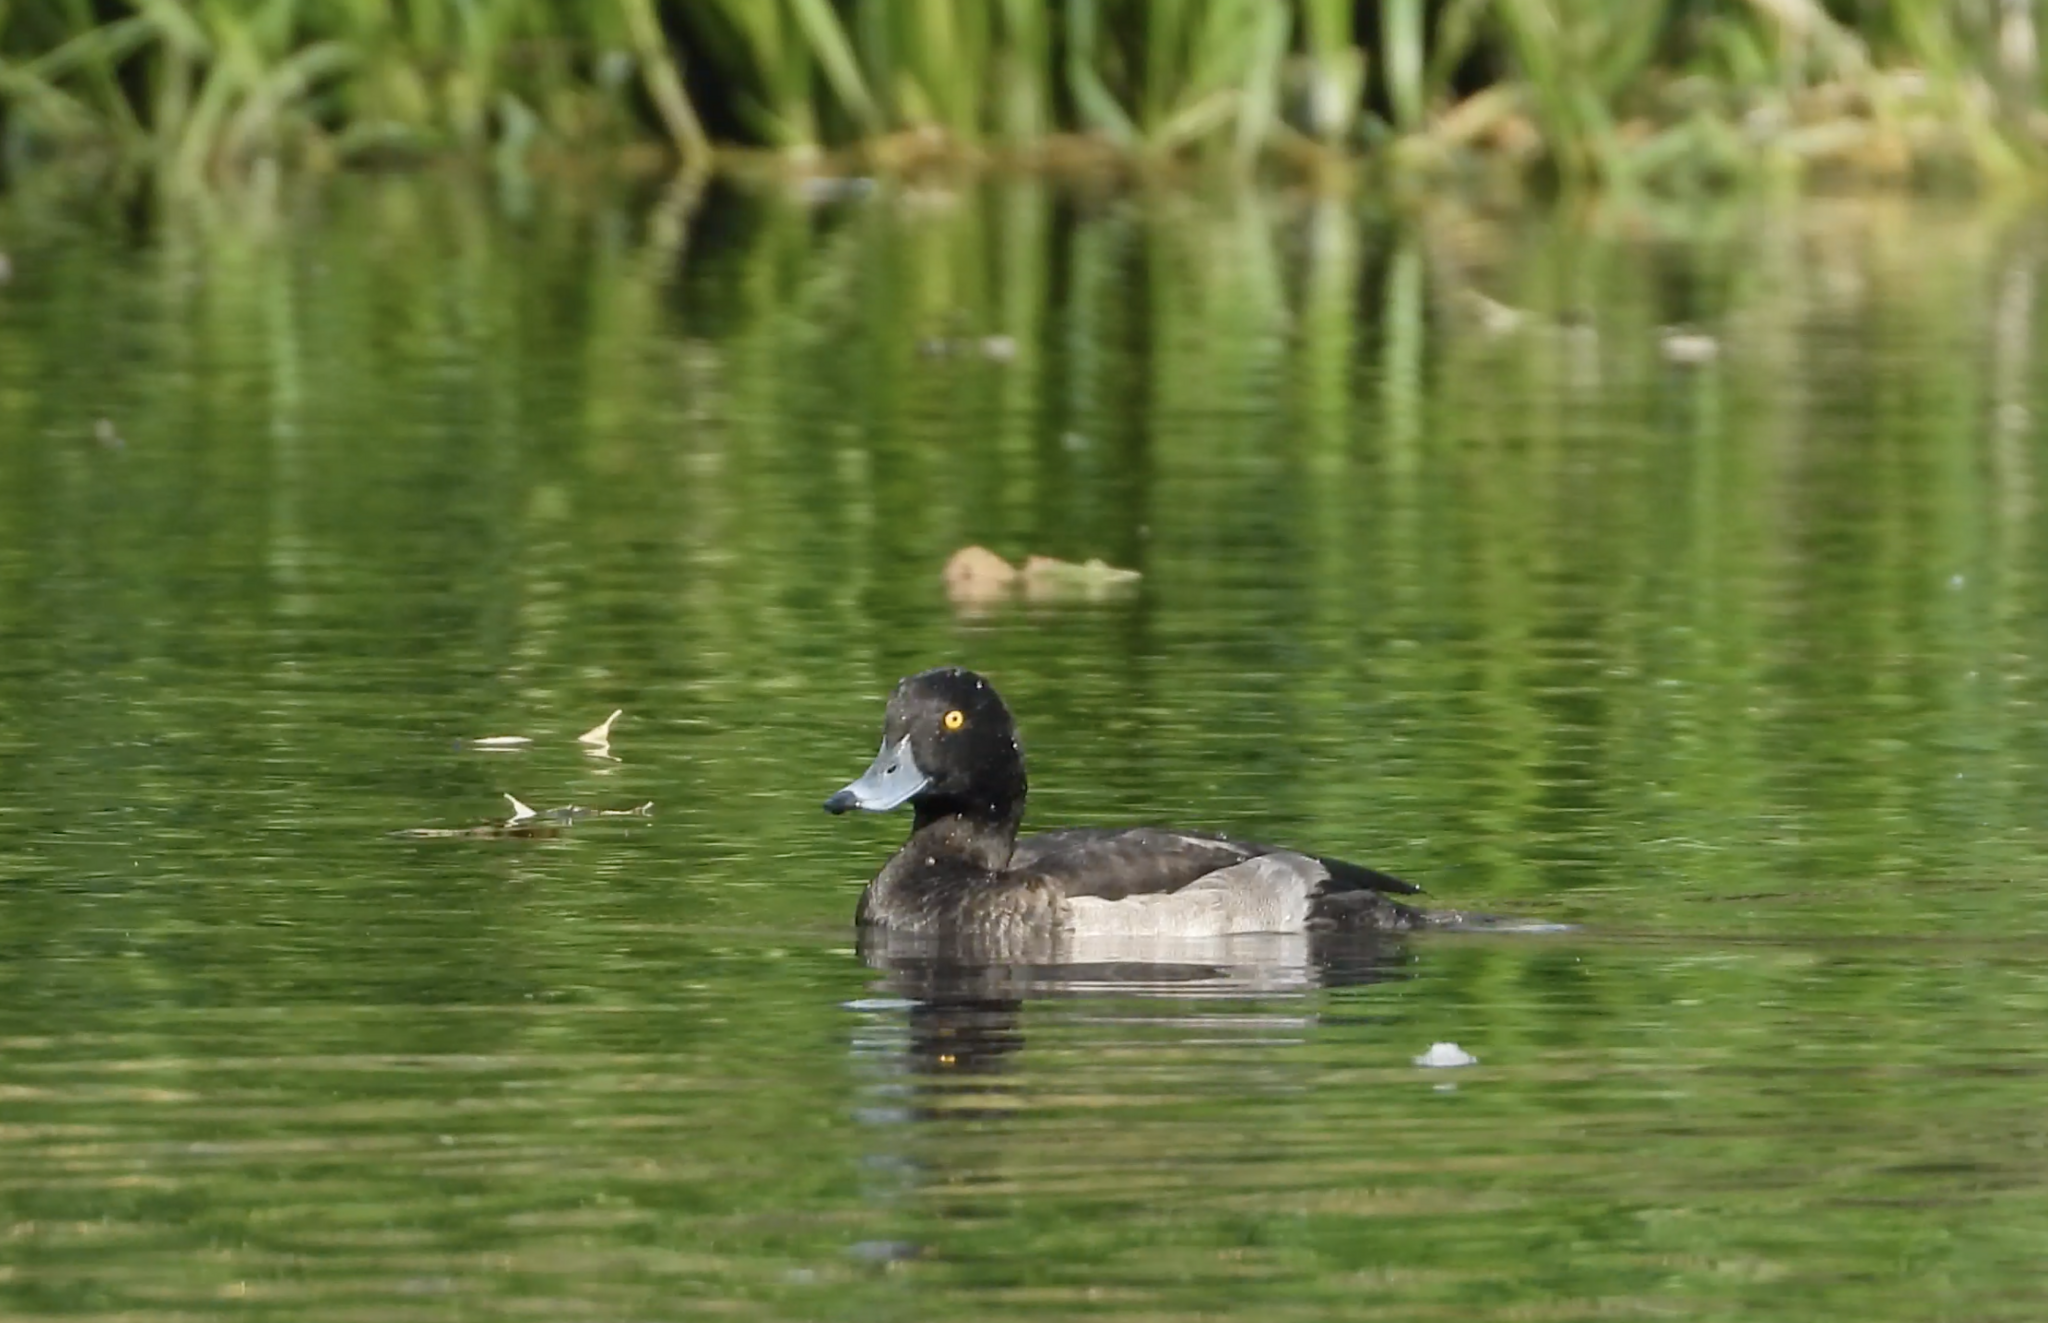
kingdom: Animalia
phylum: Chordata
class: Aves
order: Anseriformes
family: Anatidae
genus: Aythya
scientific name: Aythya fuligula
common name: Tufted duck
